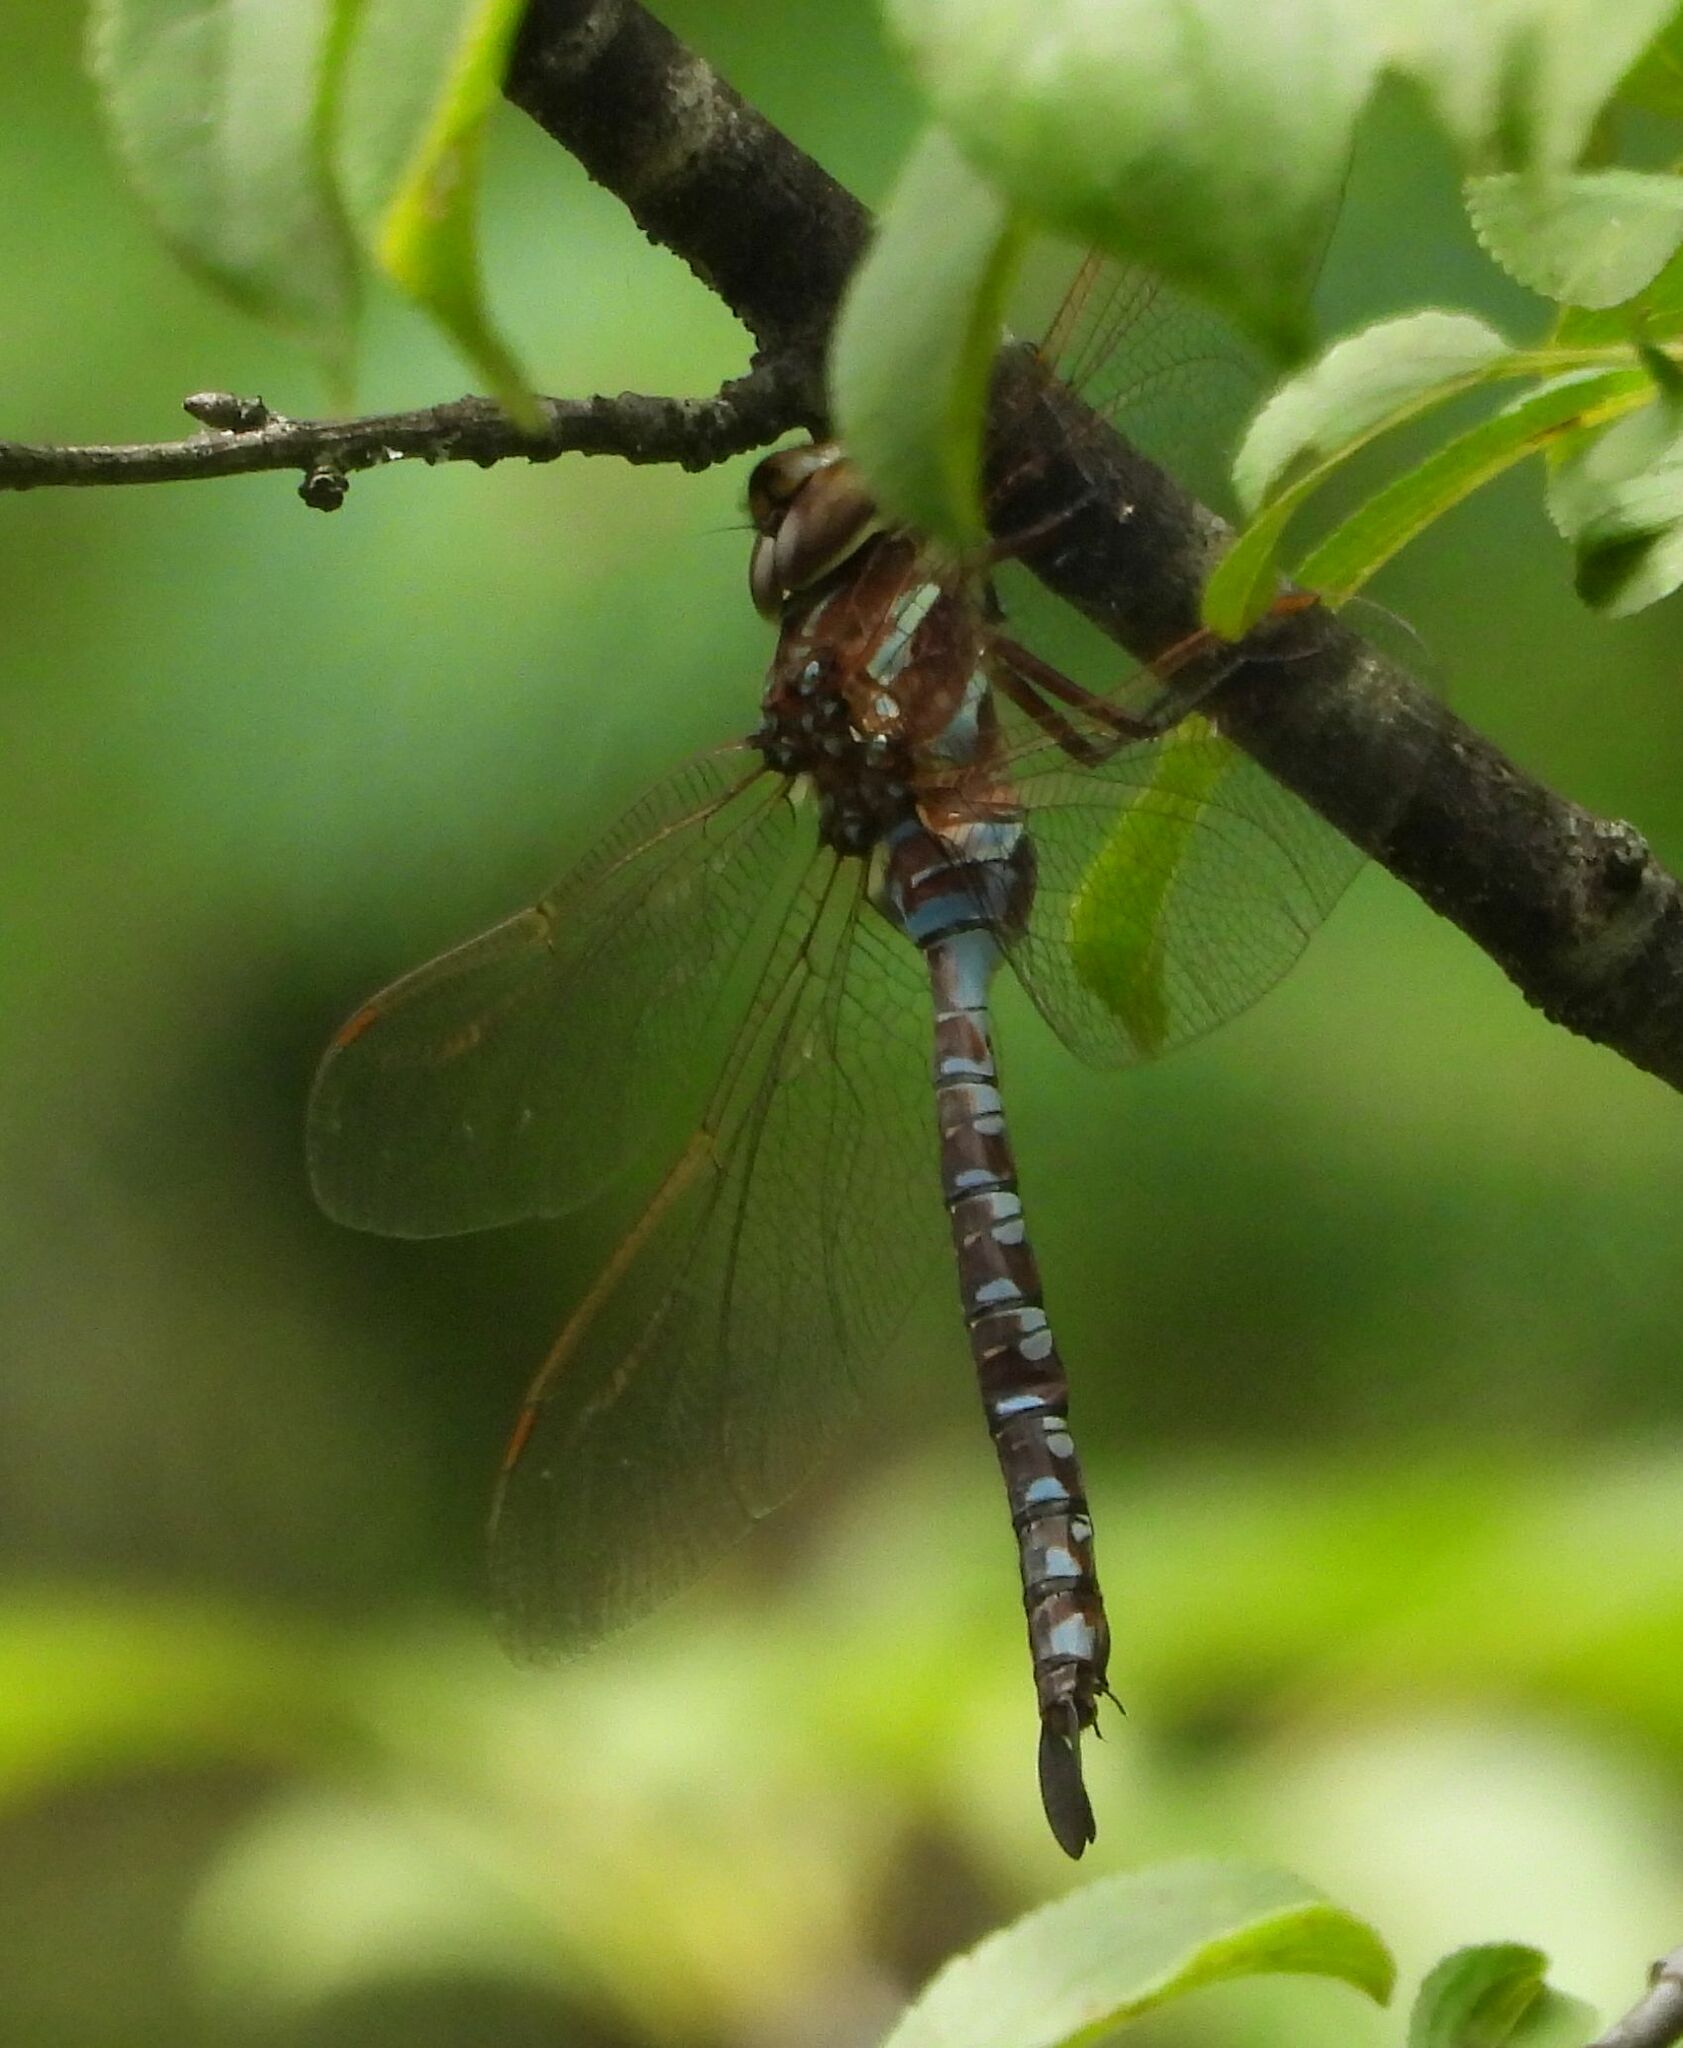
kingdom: Animalia
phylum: Arthropoda
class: Insecta
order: Odonata
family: Aeshnidae
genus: Aeshna
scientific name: Aeshna constricta
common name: Lance-tipped darner
